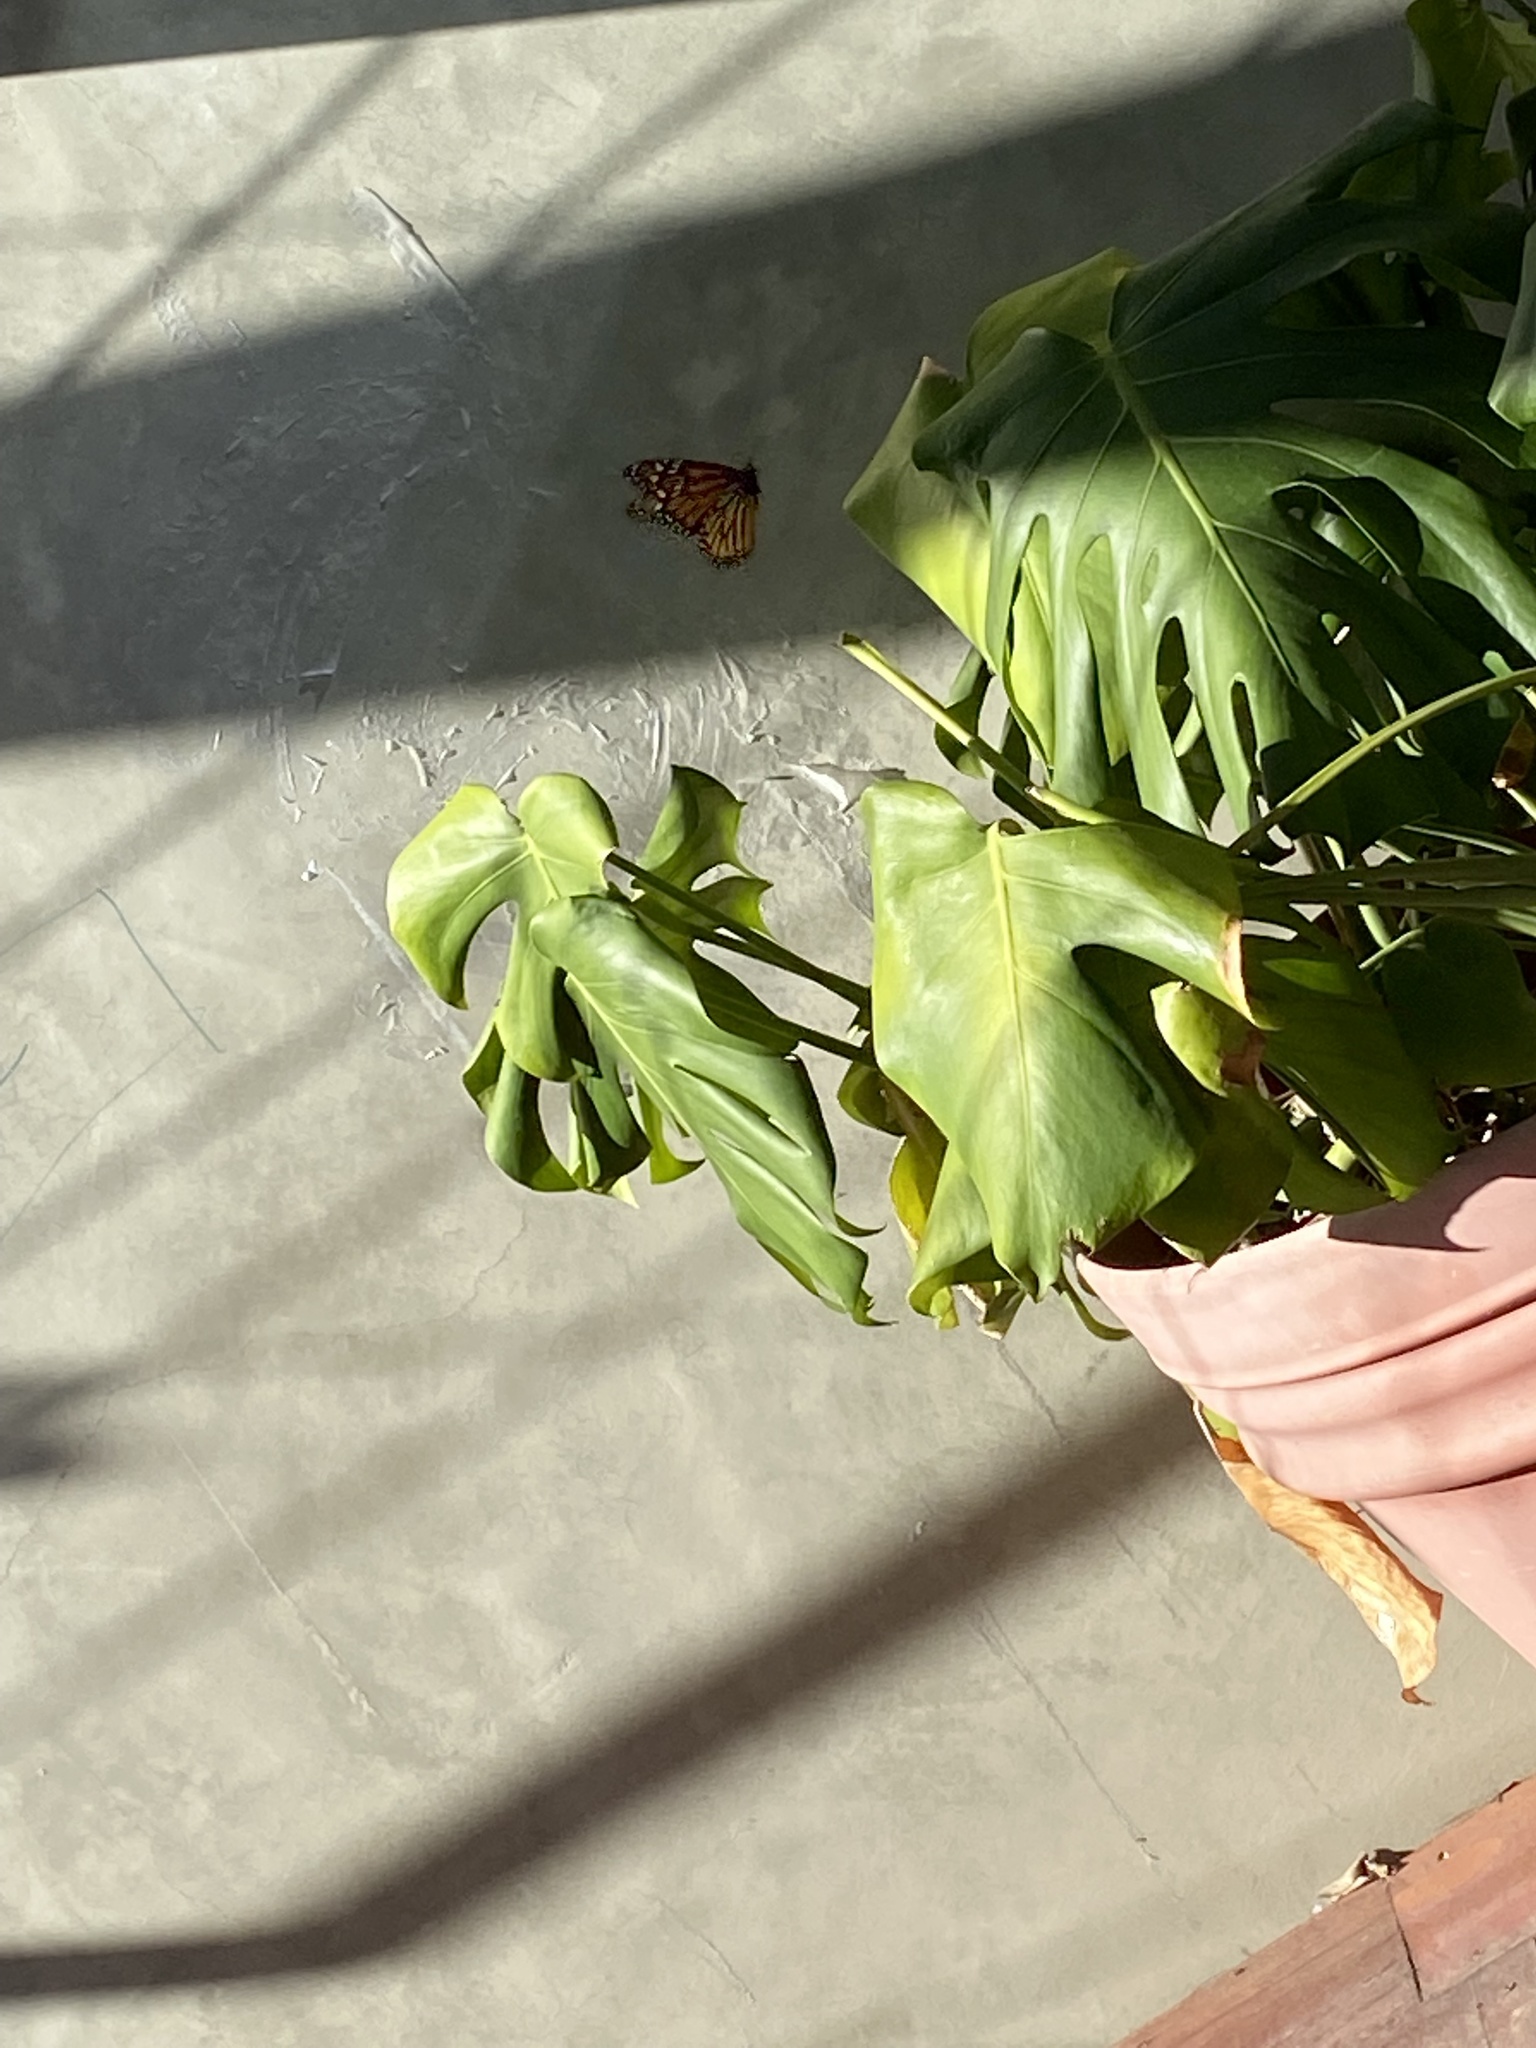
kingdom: Animalia
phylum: Arthropoda
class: Insecta
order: Lepidoptera
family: Nymphalidae
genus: Danaus
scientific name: Danaus plexippus
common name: Monarch
